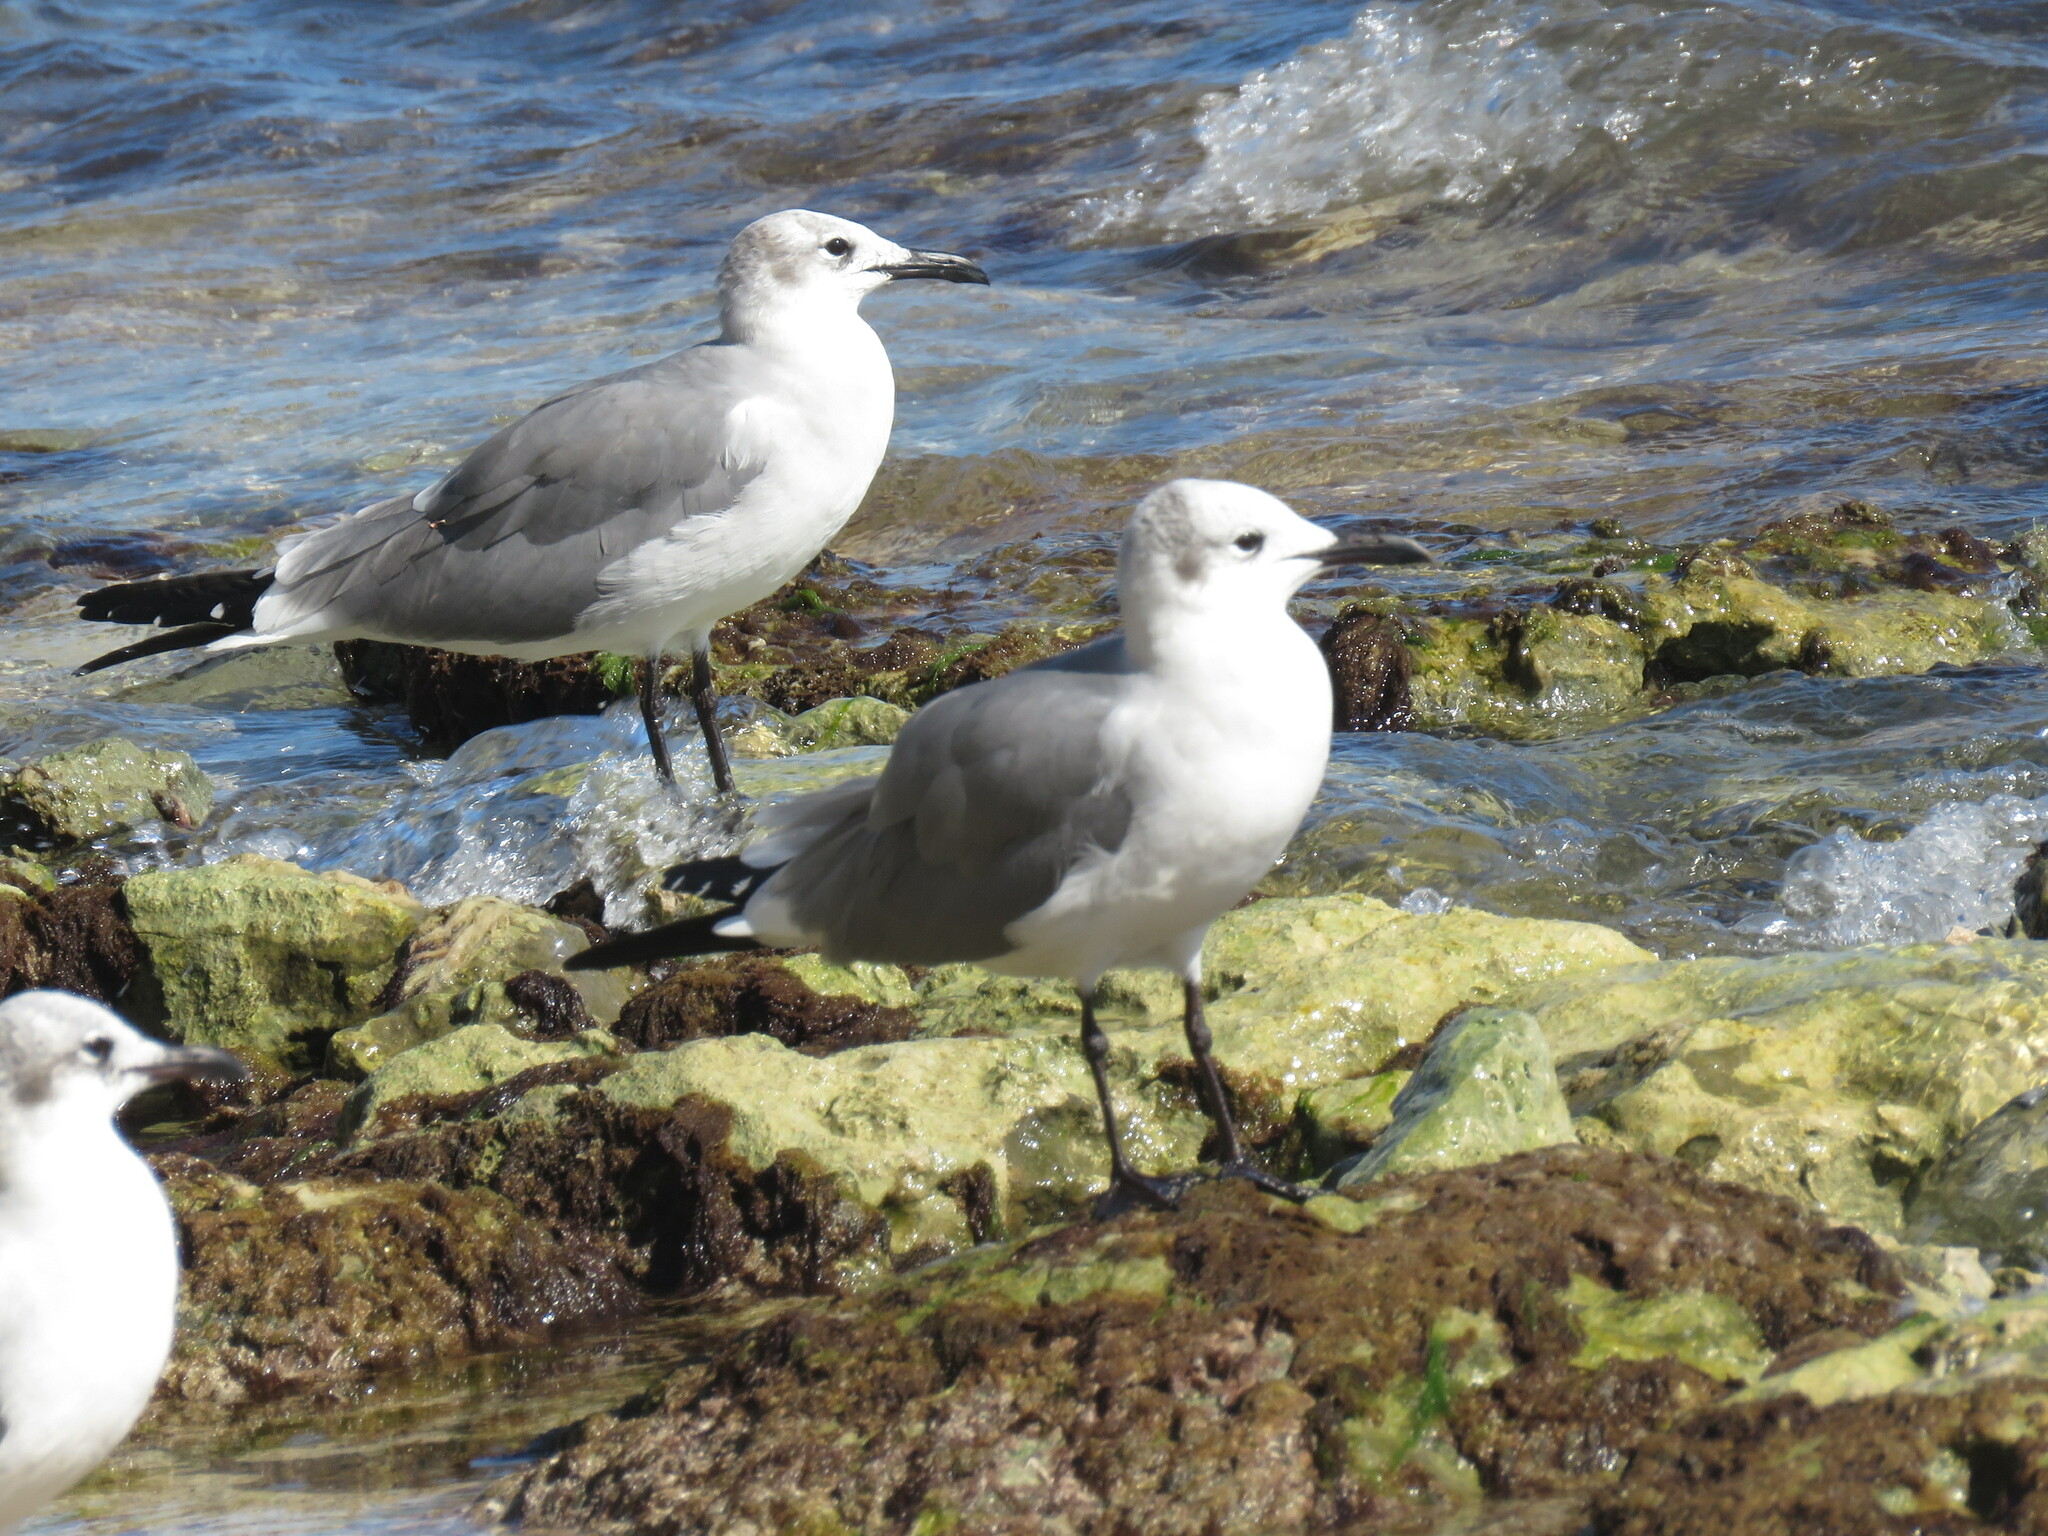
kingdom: Animalia
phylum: Chordata
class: Aves
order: Charadriiformes
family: Laridae
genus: Leucophaeus
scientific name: Leucophaeus atricilla
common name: Laughing gull
